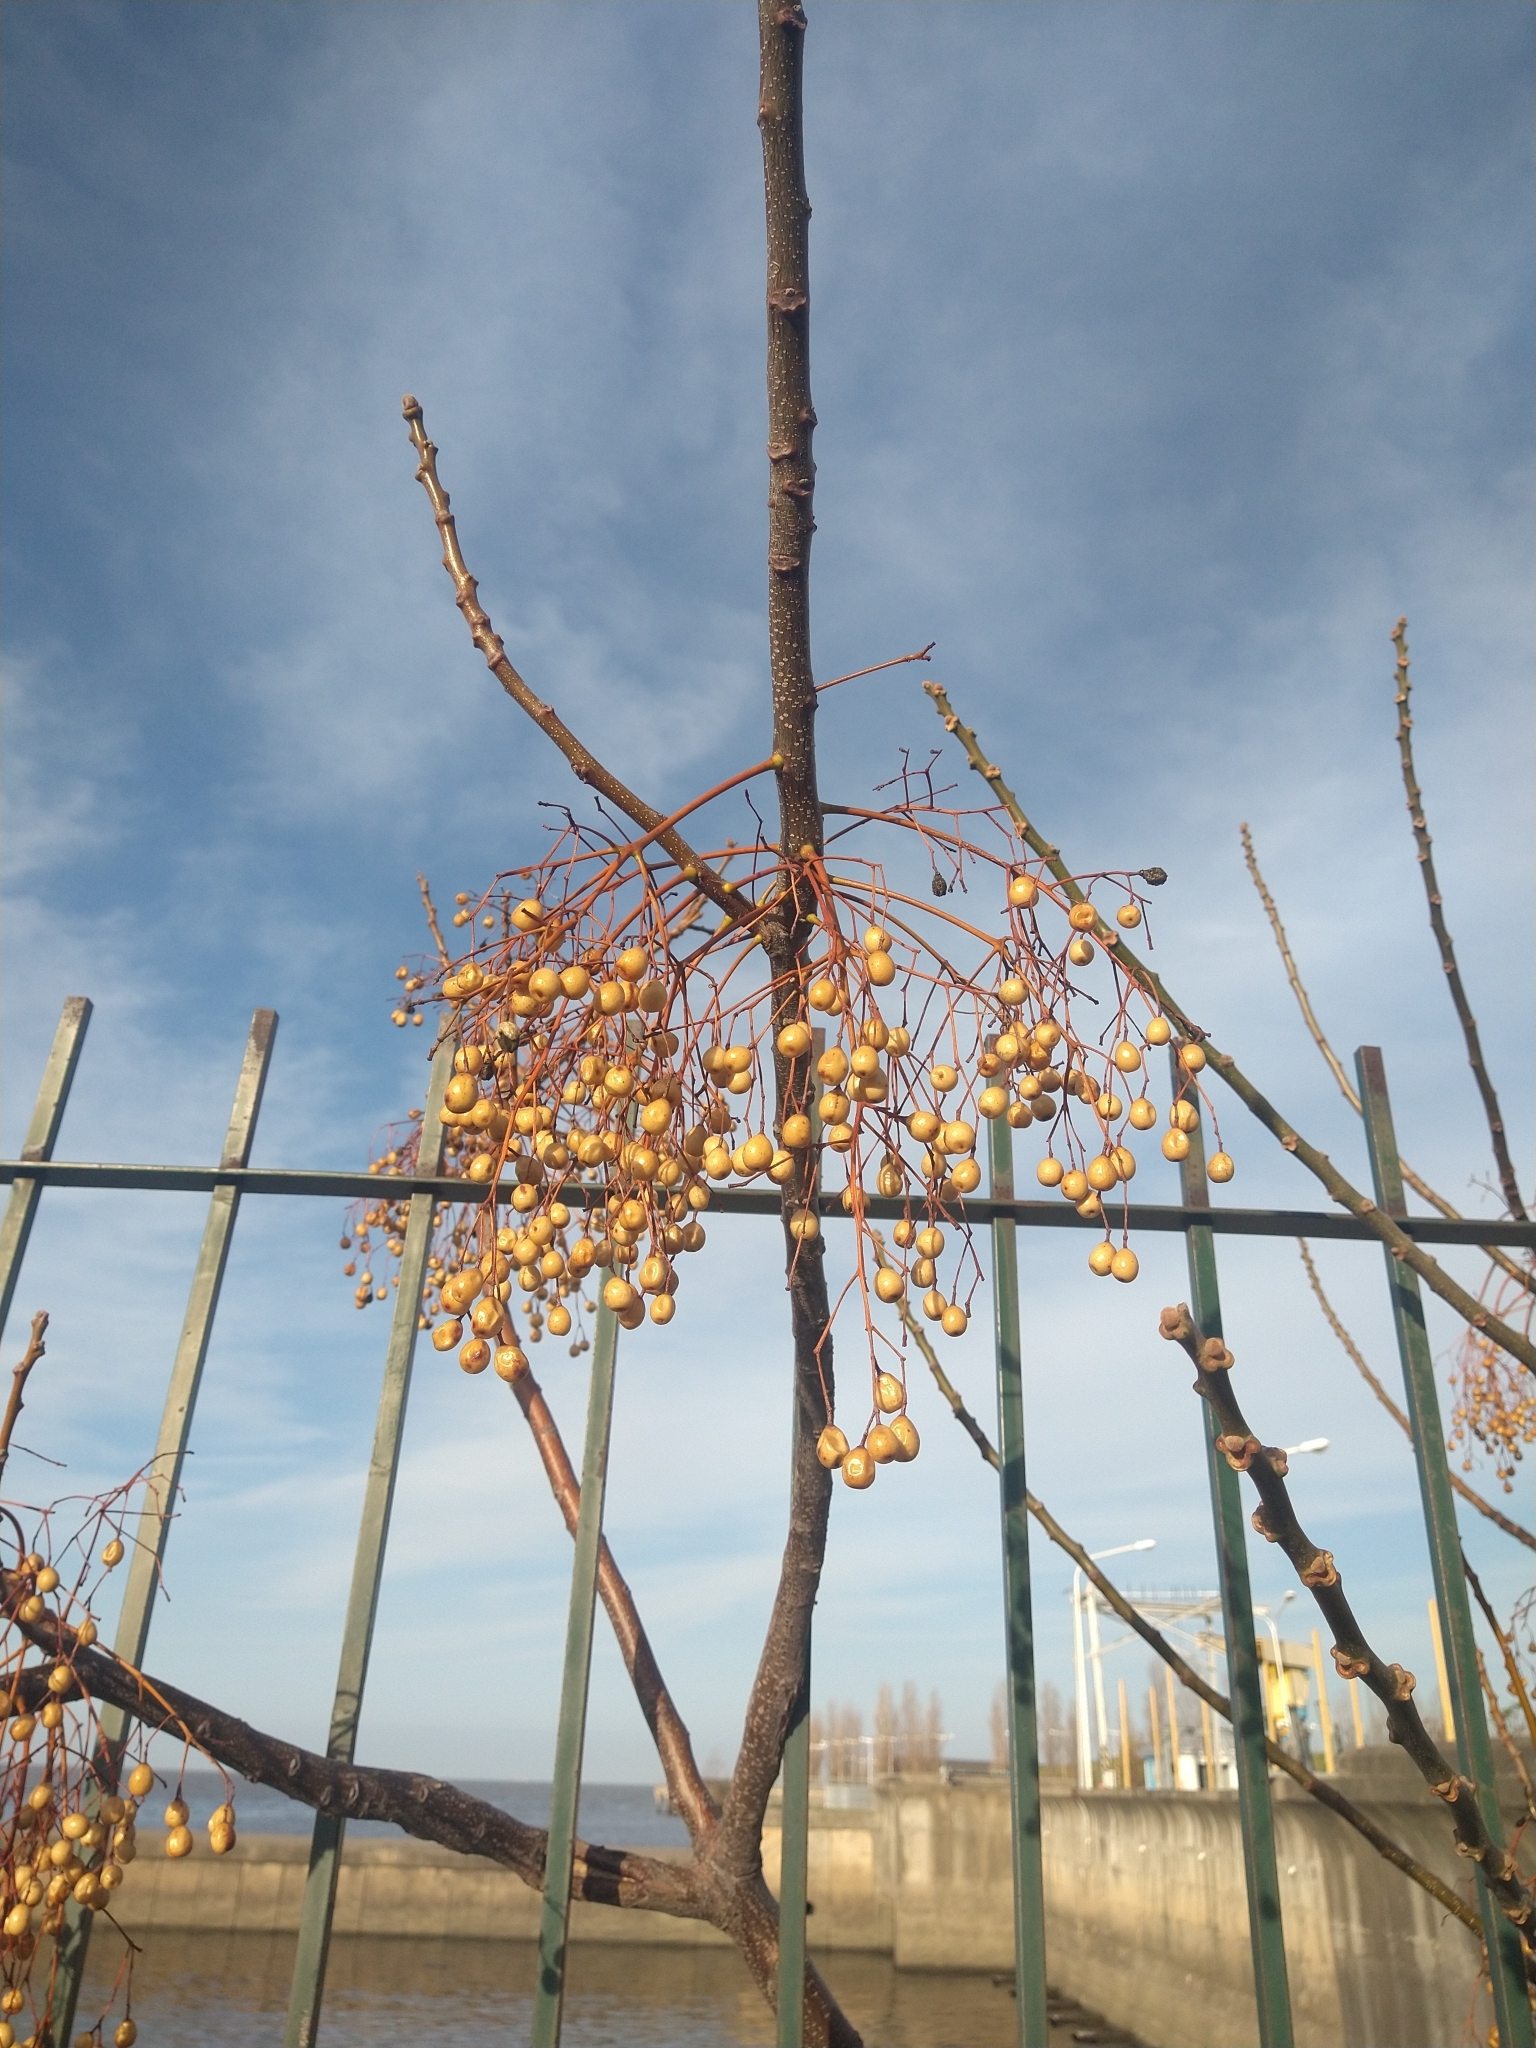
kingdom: Plantae
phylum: Tracheophyta
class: Magnoliopsida
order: Sapindales
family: Meliaceae
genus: Melia
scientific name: Melia azedarach
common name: Chinaberrytree
